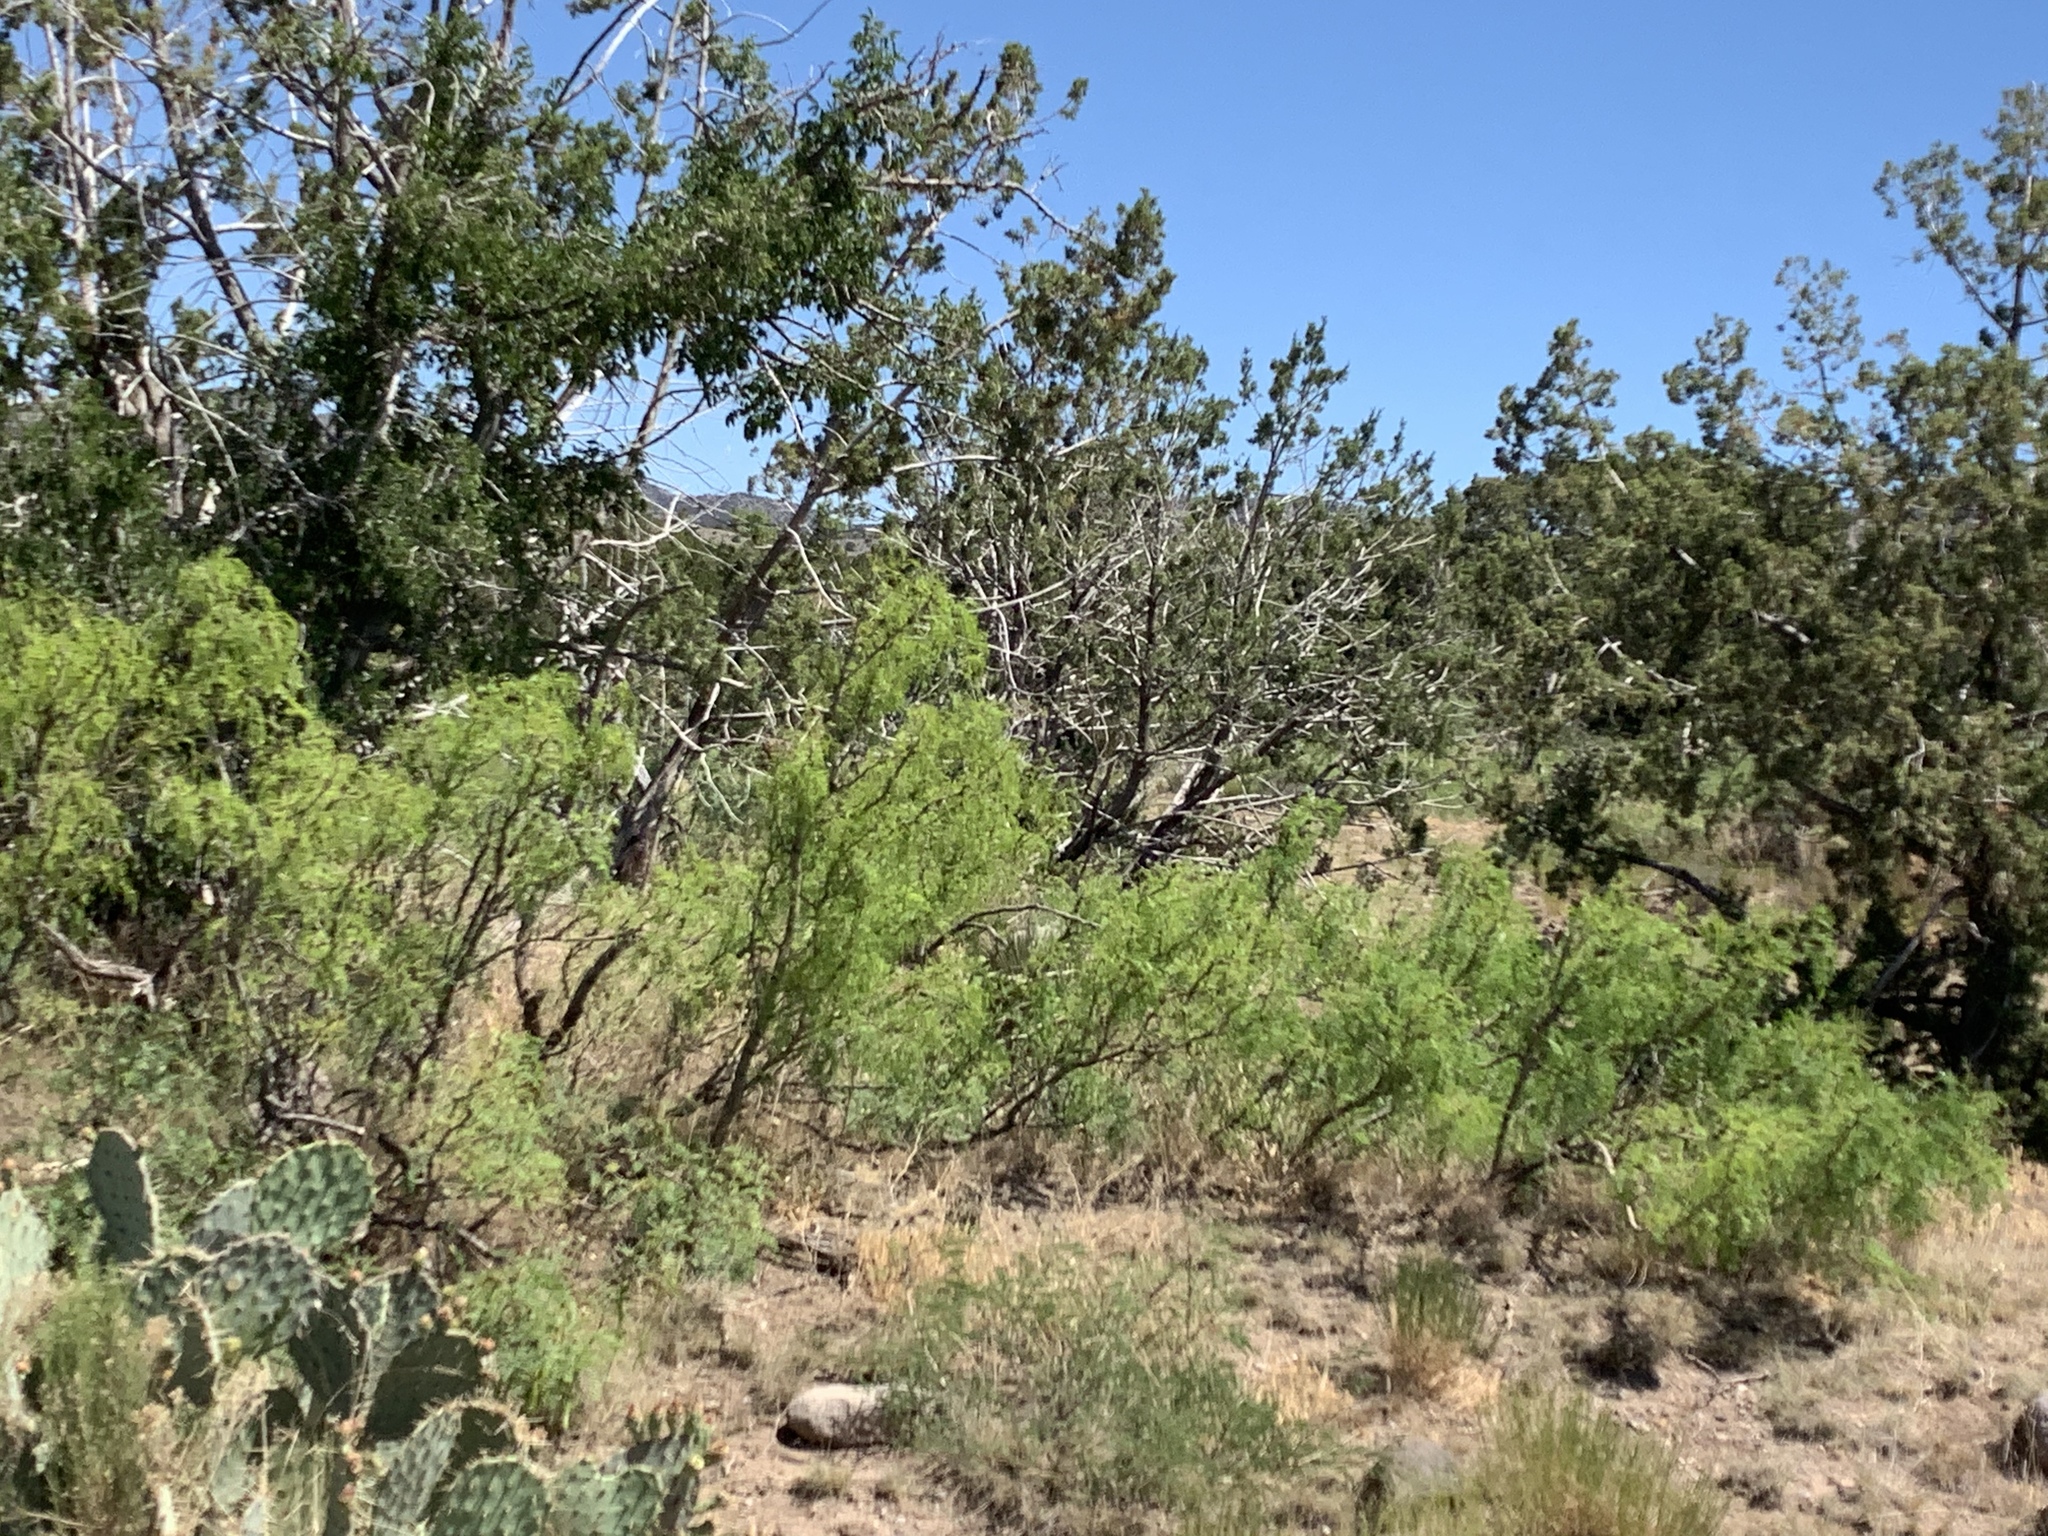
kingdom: Plantae
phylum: Tracheophyta
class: Magnoliopsida
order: Fabales
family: Fabaceae
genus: Prosopis
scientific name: Prosopis glandulosa
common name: Honey mesquite
